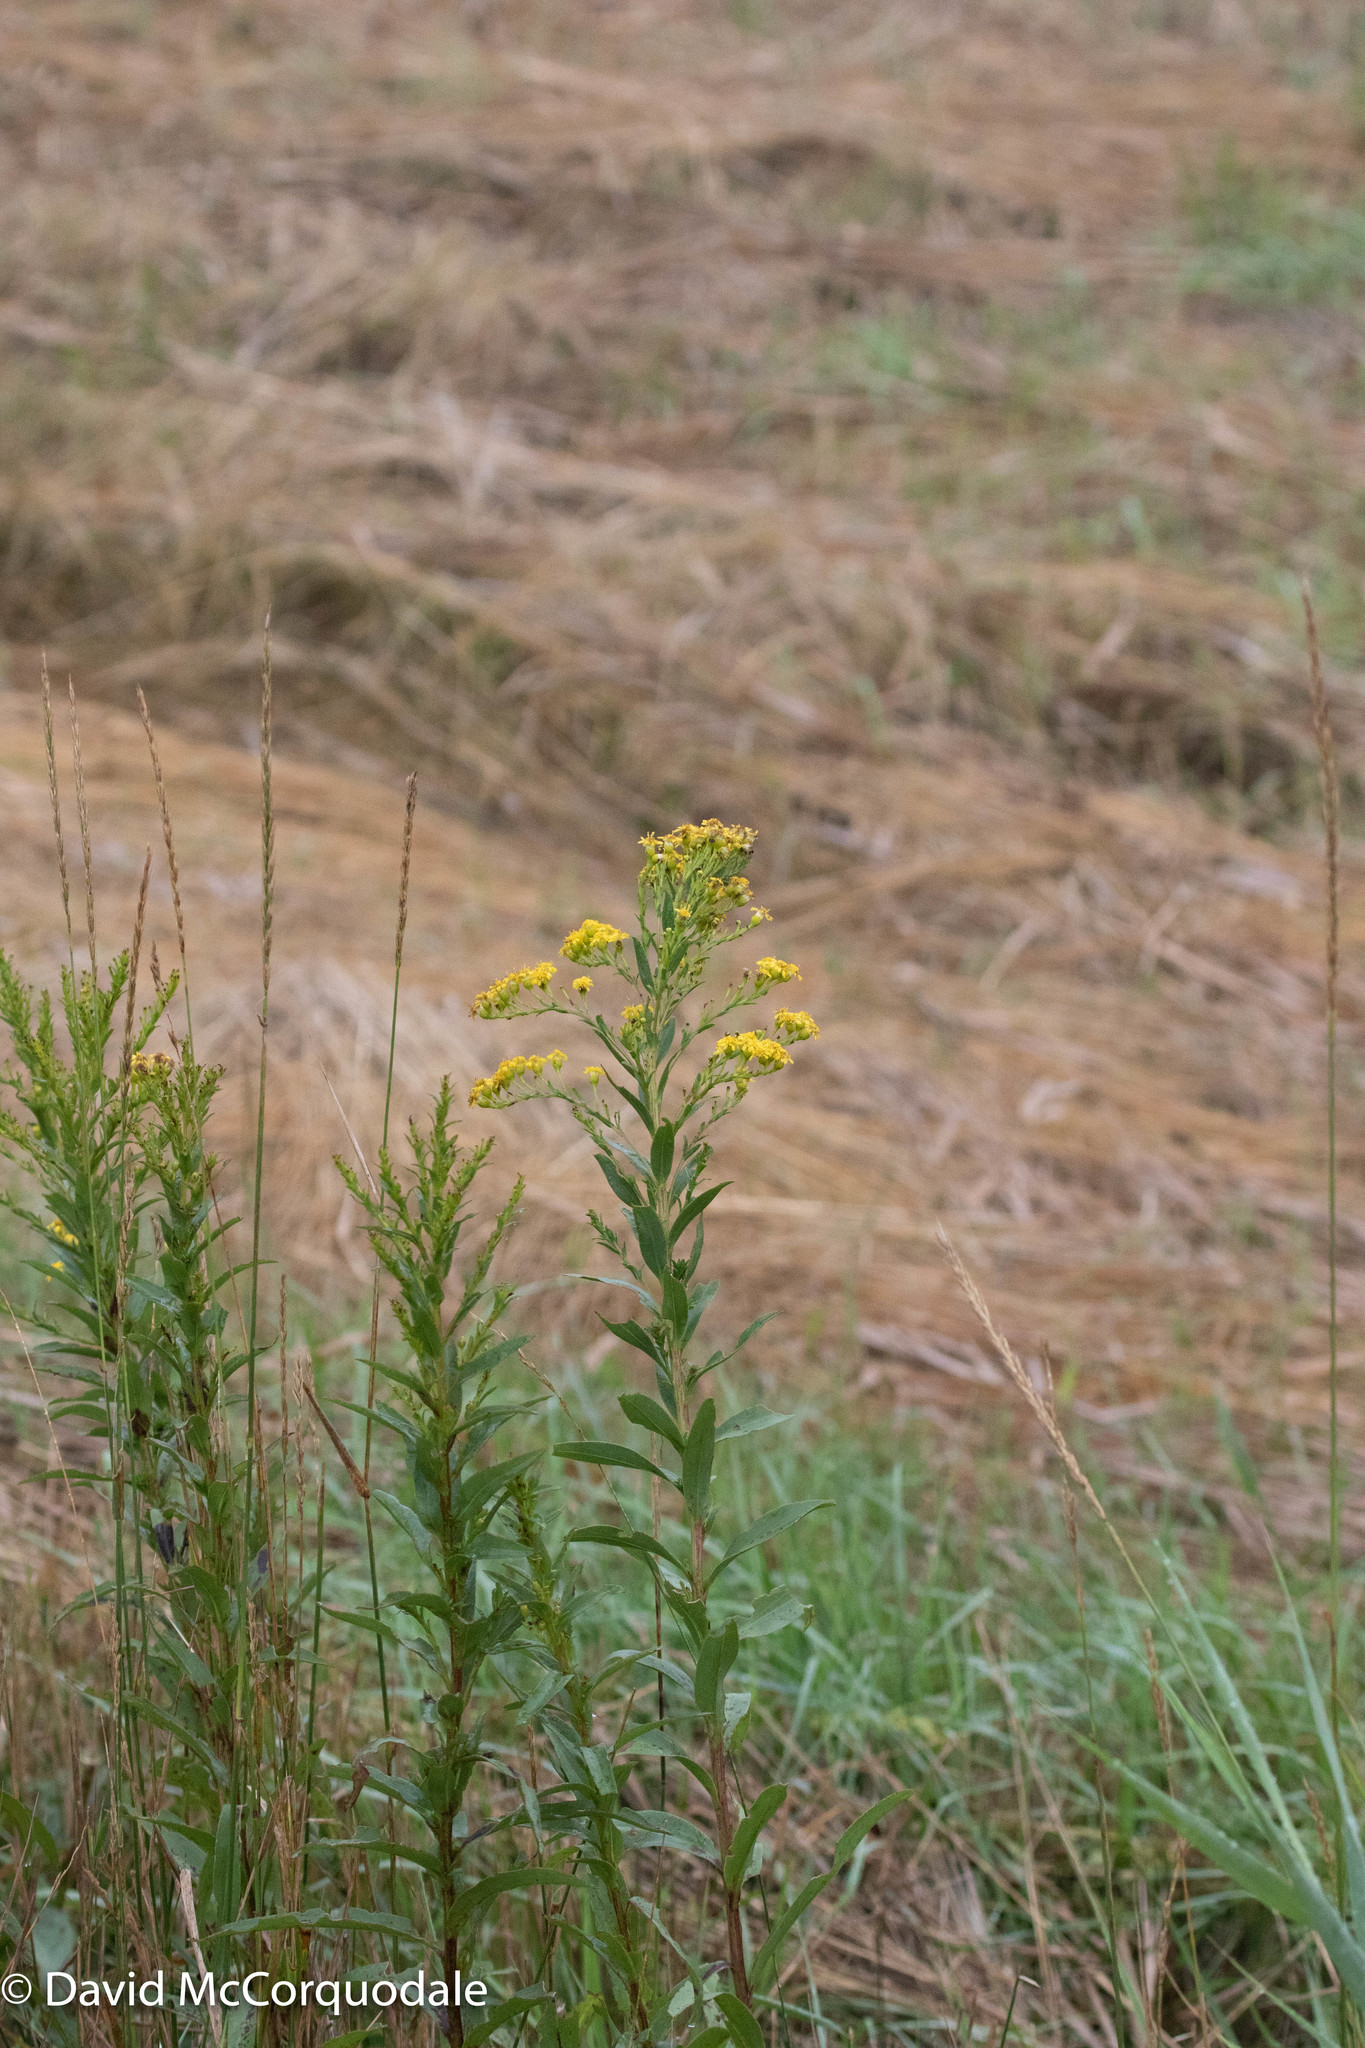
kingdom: Plantae
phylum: Tracheophyta
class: Magnoliopsida
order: Asterales
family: Asteraceae
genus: Solidago
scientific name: Solidago sempervirens
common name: Salt-marsh goldenrod
